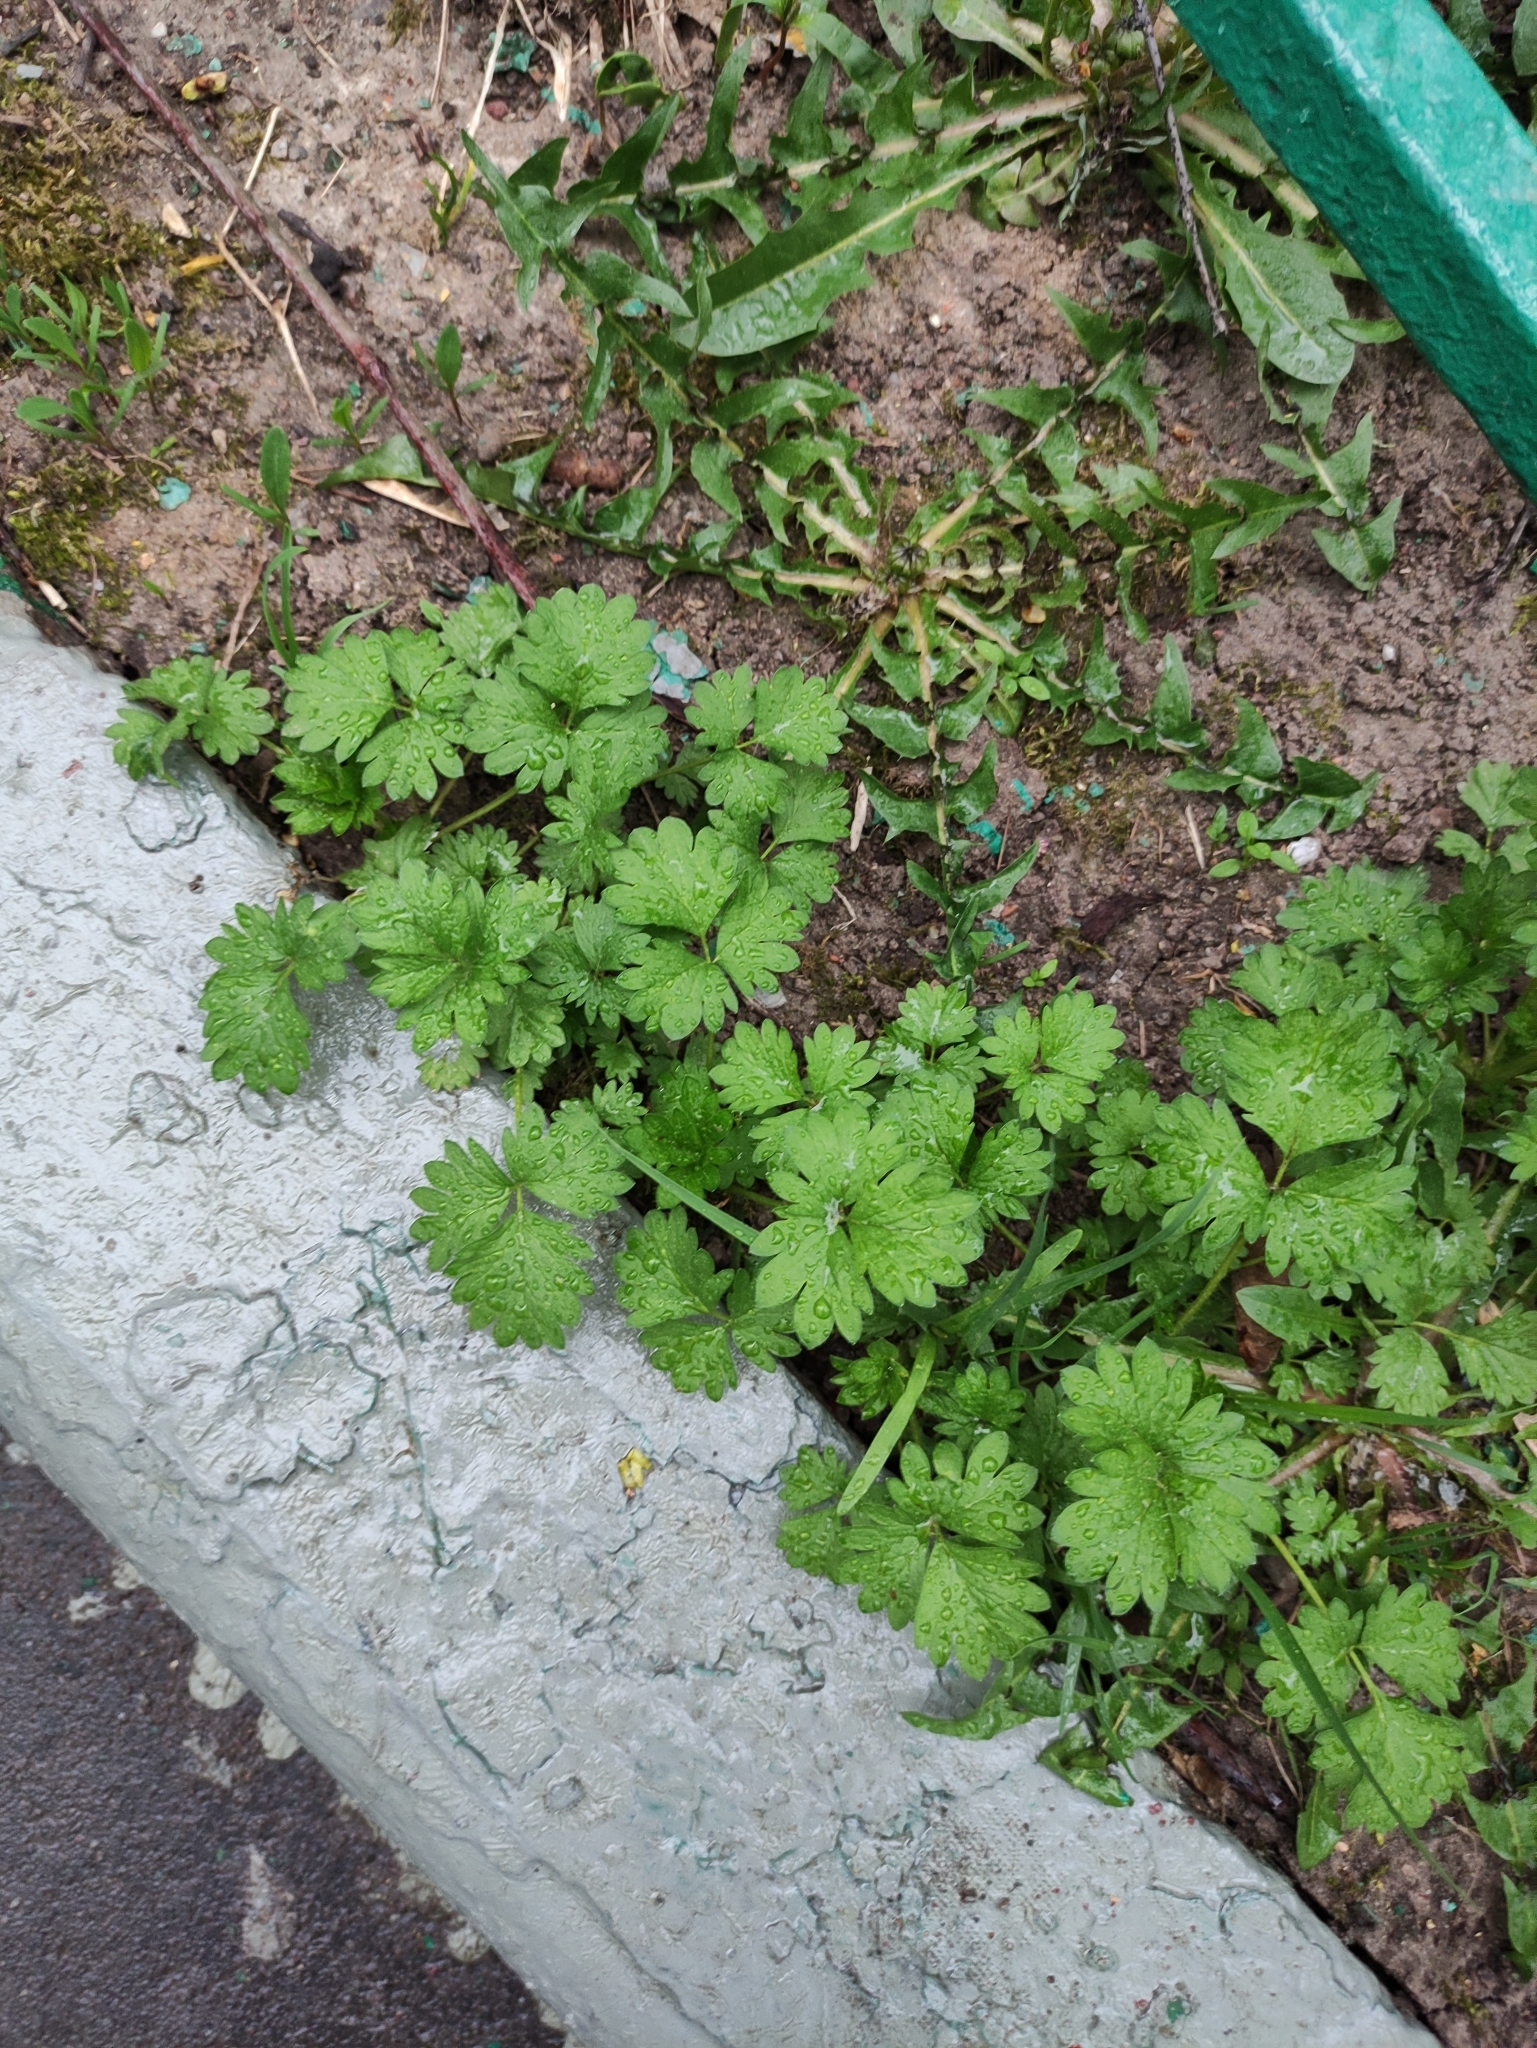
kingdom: Plantae
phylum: Tracheophyta
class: Magnoliopsida
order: Rosales
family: Rosaceae
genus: Potentilla
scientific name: Potentilla norvegica
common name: Ternate-leaved cinquefoil
